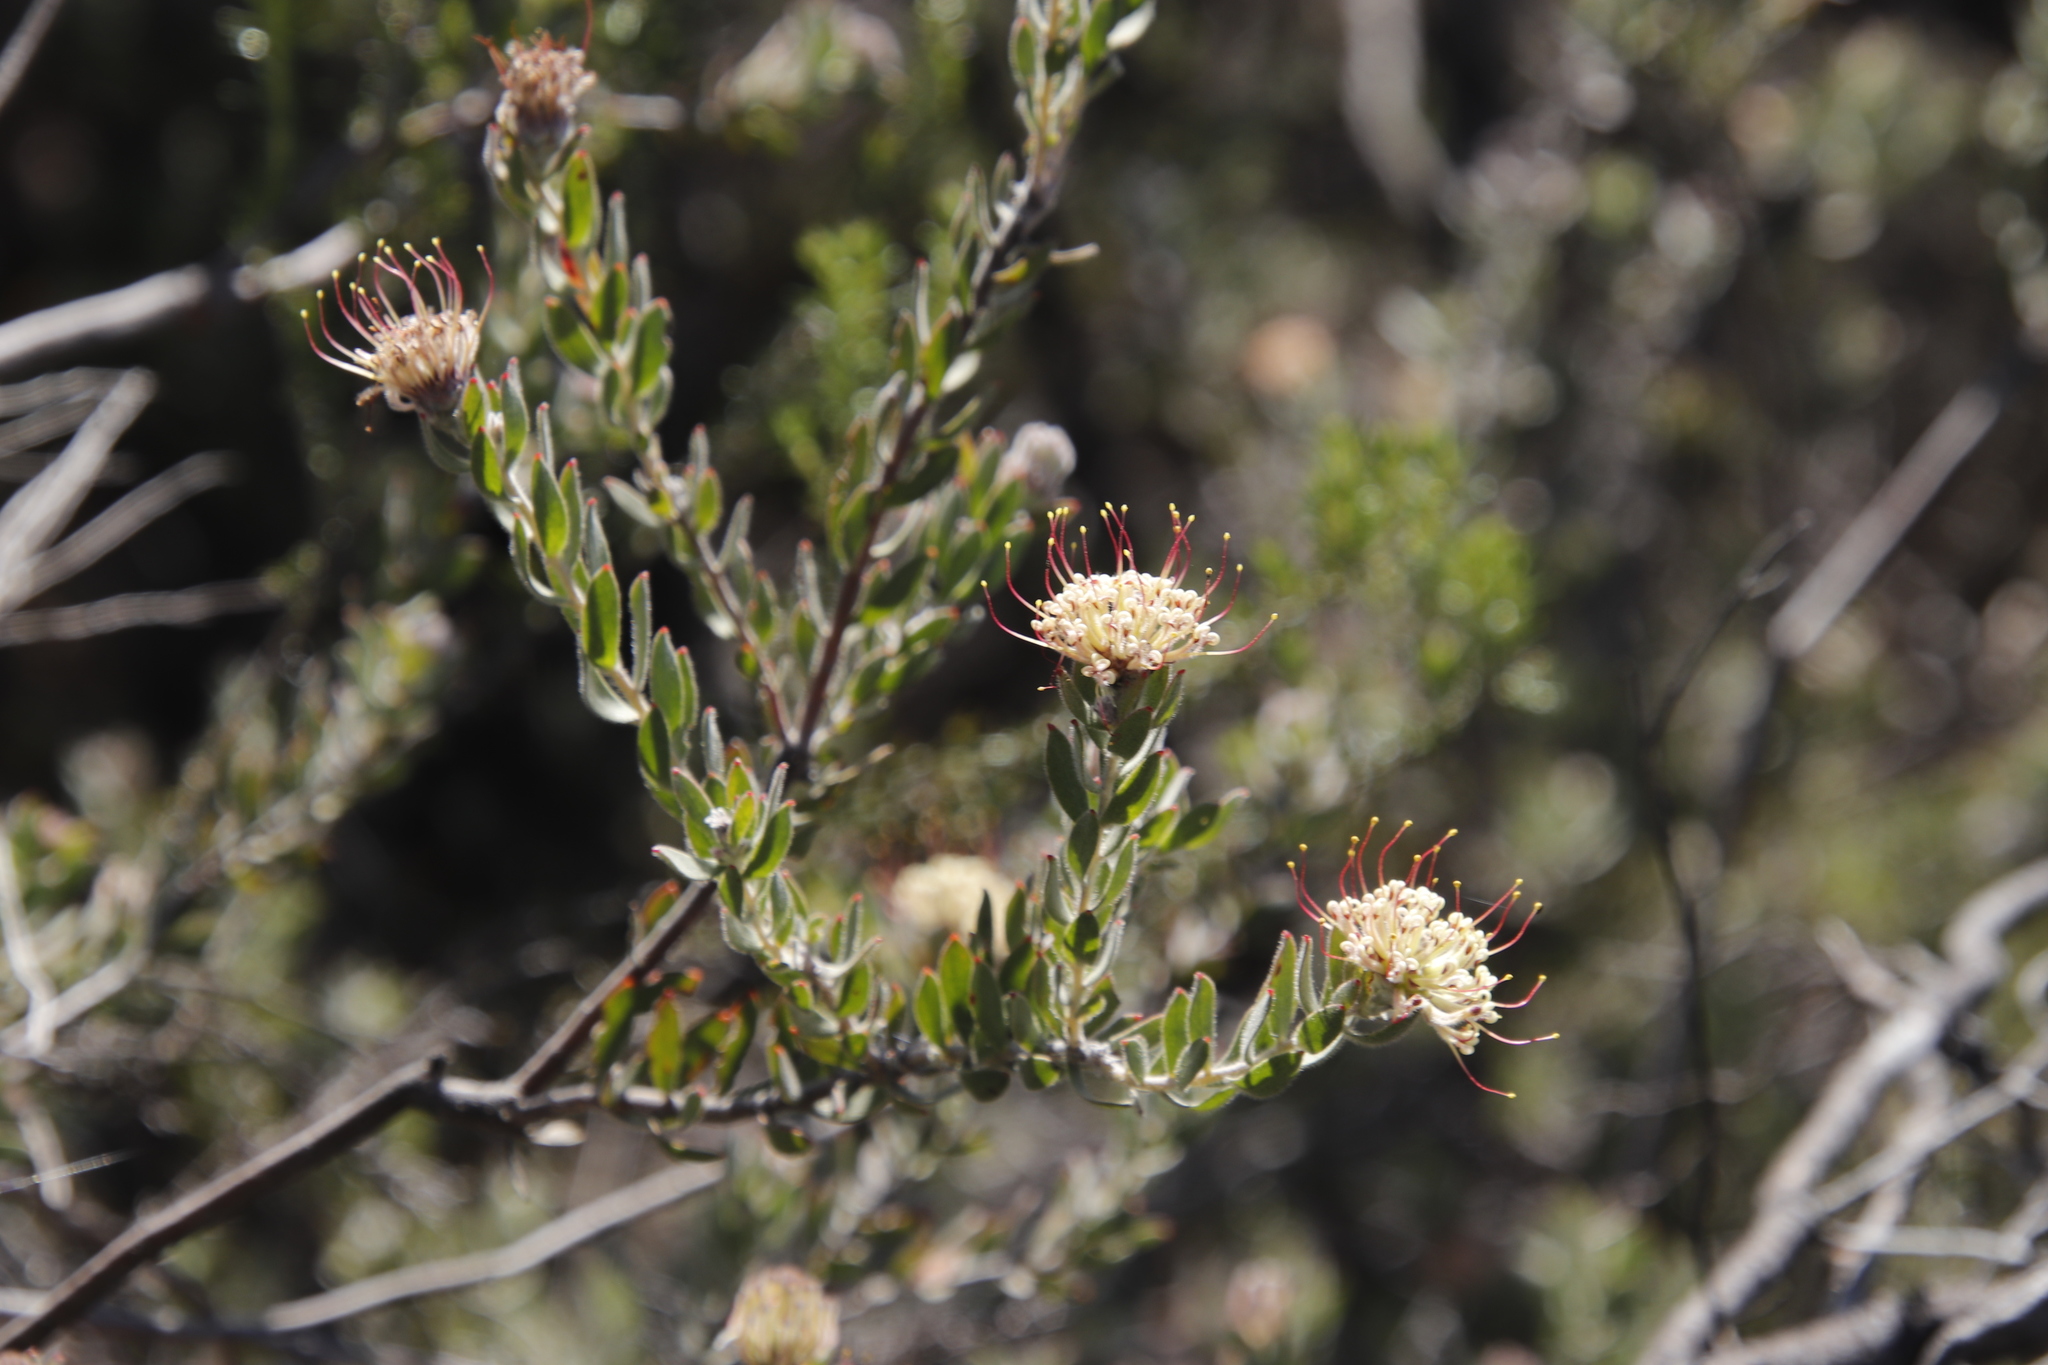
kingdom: Plantae
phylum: Tracheophyta
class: Magnoliopsida
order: Proteales
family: Proteaceae
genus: Leucospermum
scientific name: Leucospermum calligerum
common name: Arid pincushion
